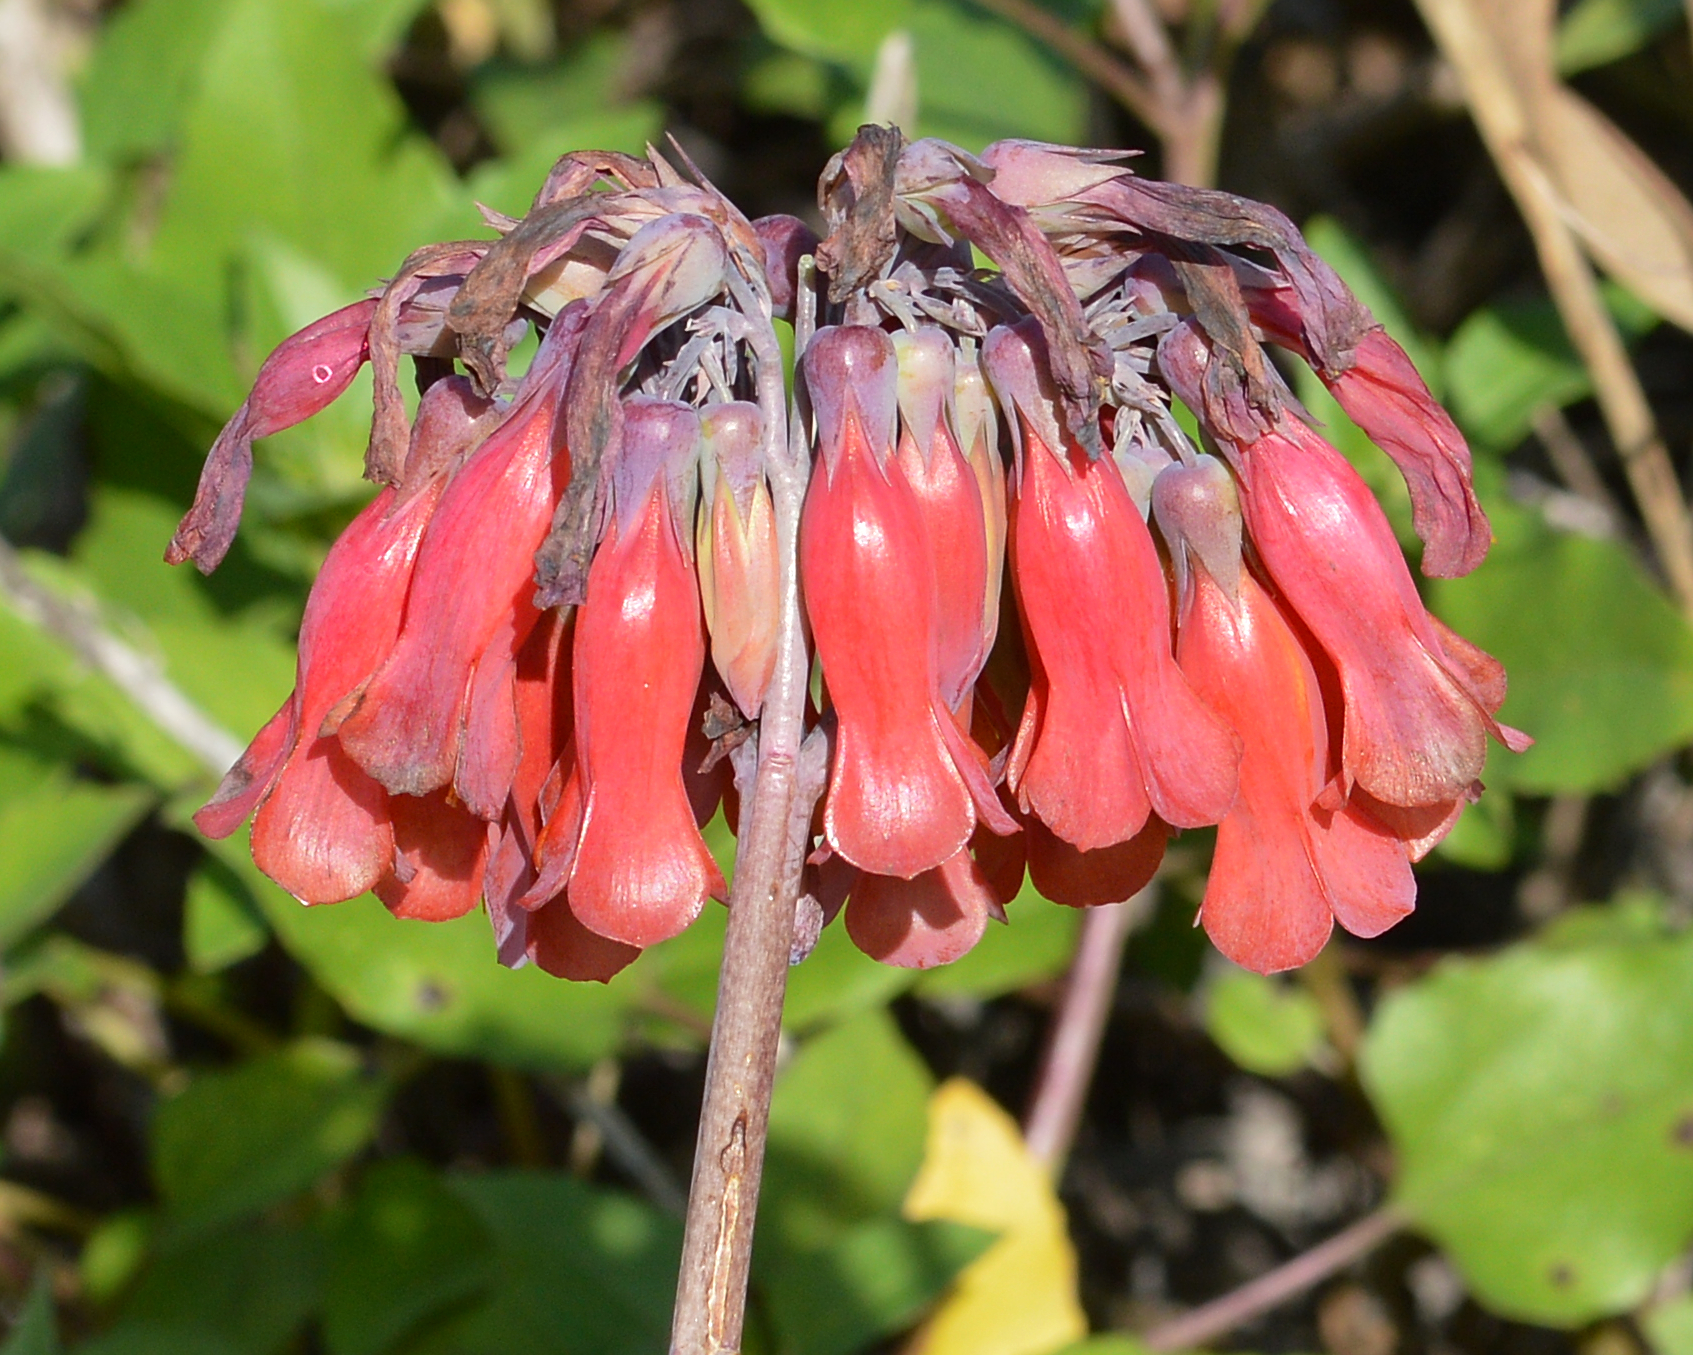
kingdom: Chromista
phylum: Ciliophora
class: Gymnostomatea
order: Spathidiida
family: Spathidiidae
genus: Bryophyllum
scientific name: Bryophyllum
